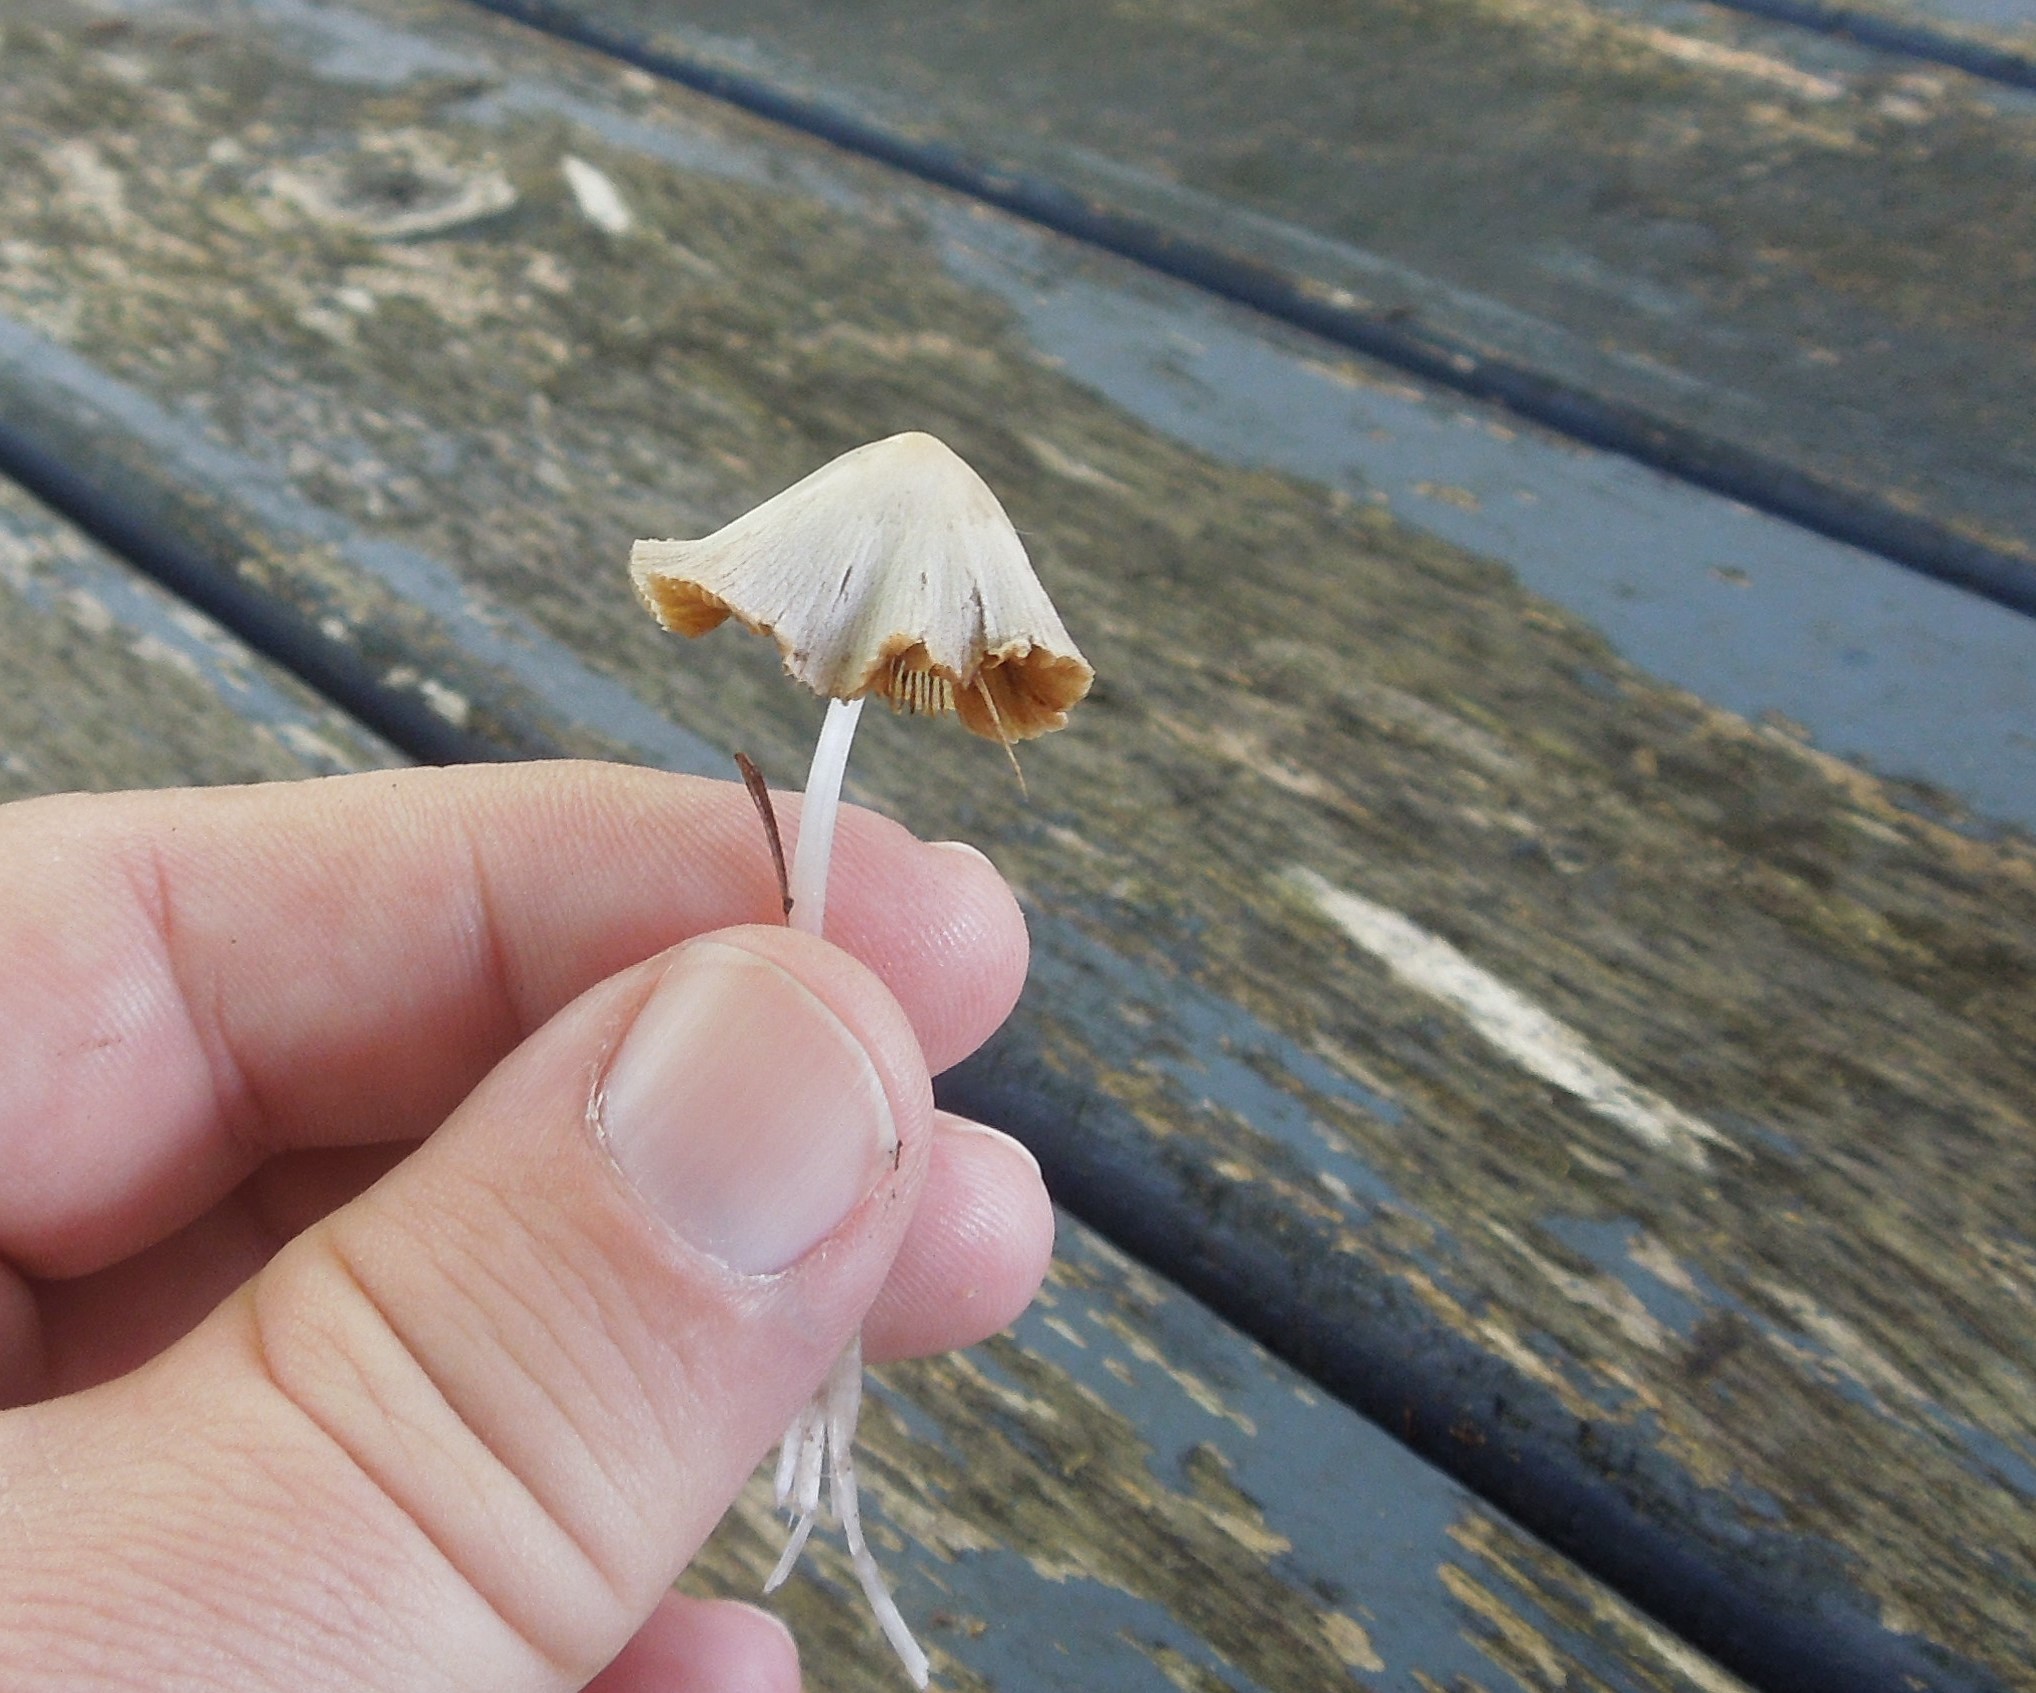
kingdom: Fungi
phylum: Basidiomycota
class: Agaricomycetes
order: Agaricales
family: Bolbitiaceae
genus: Conocybe
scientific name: Conocybe apala
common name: Milky conecap
